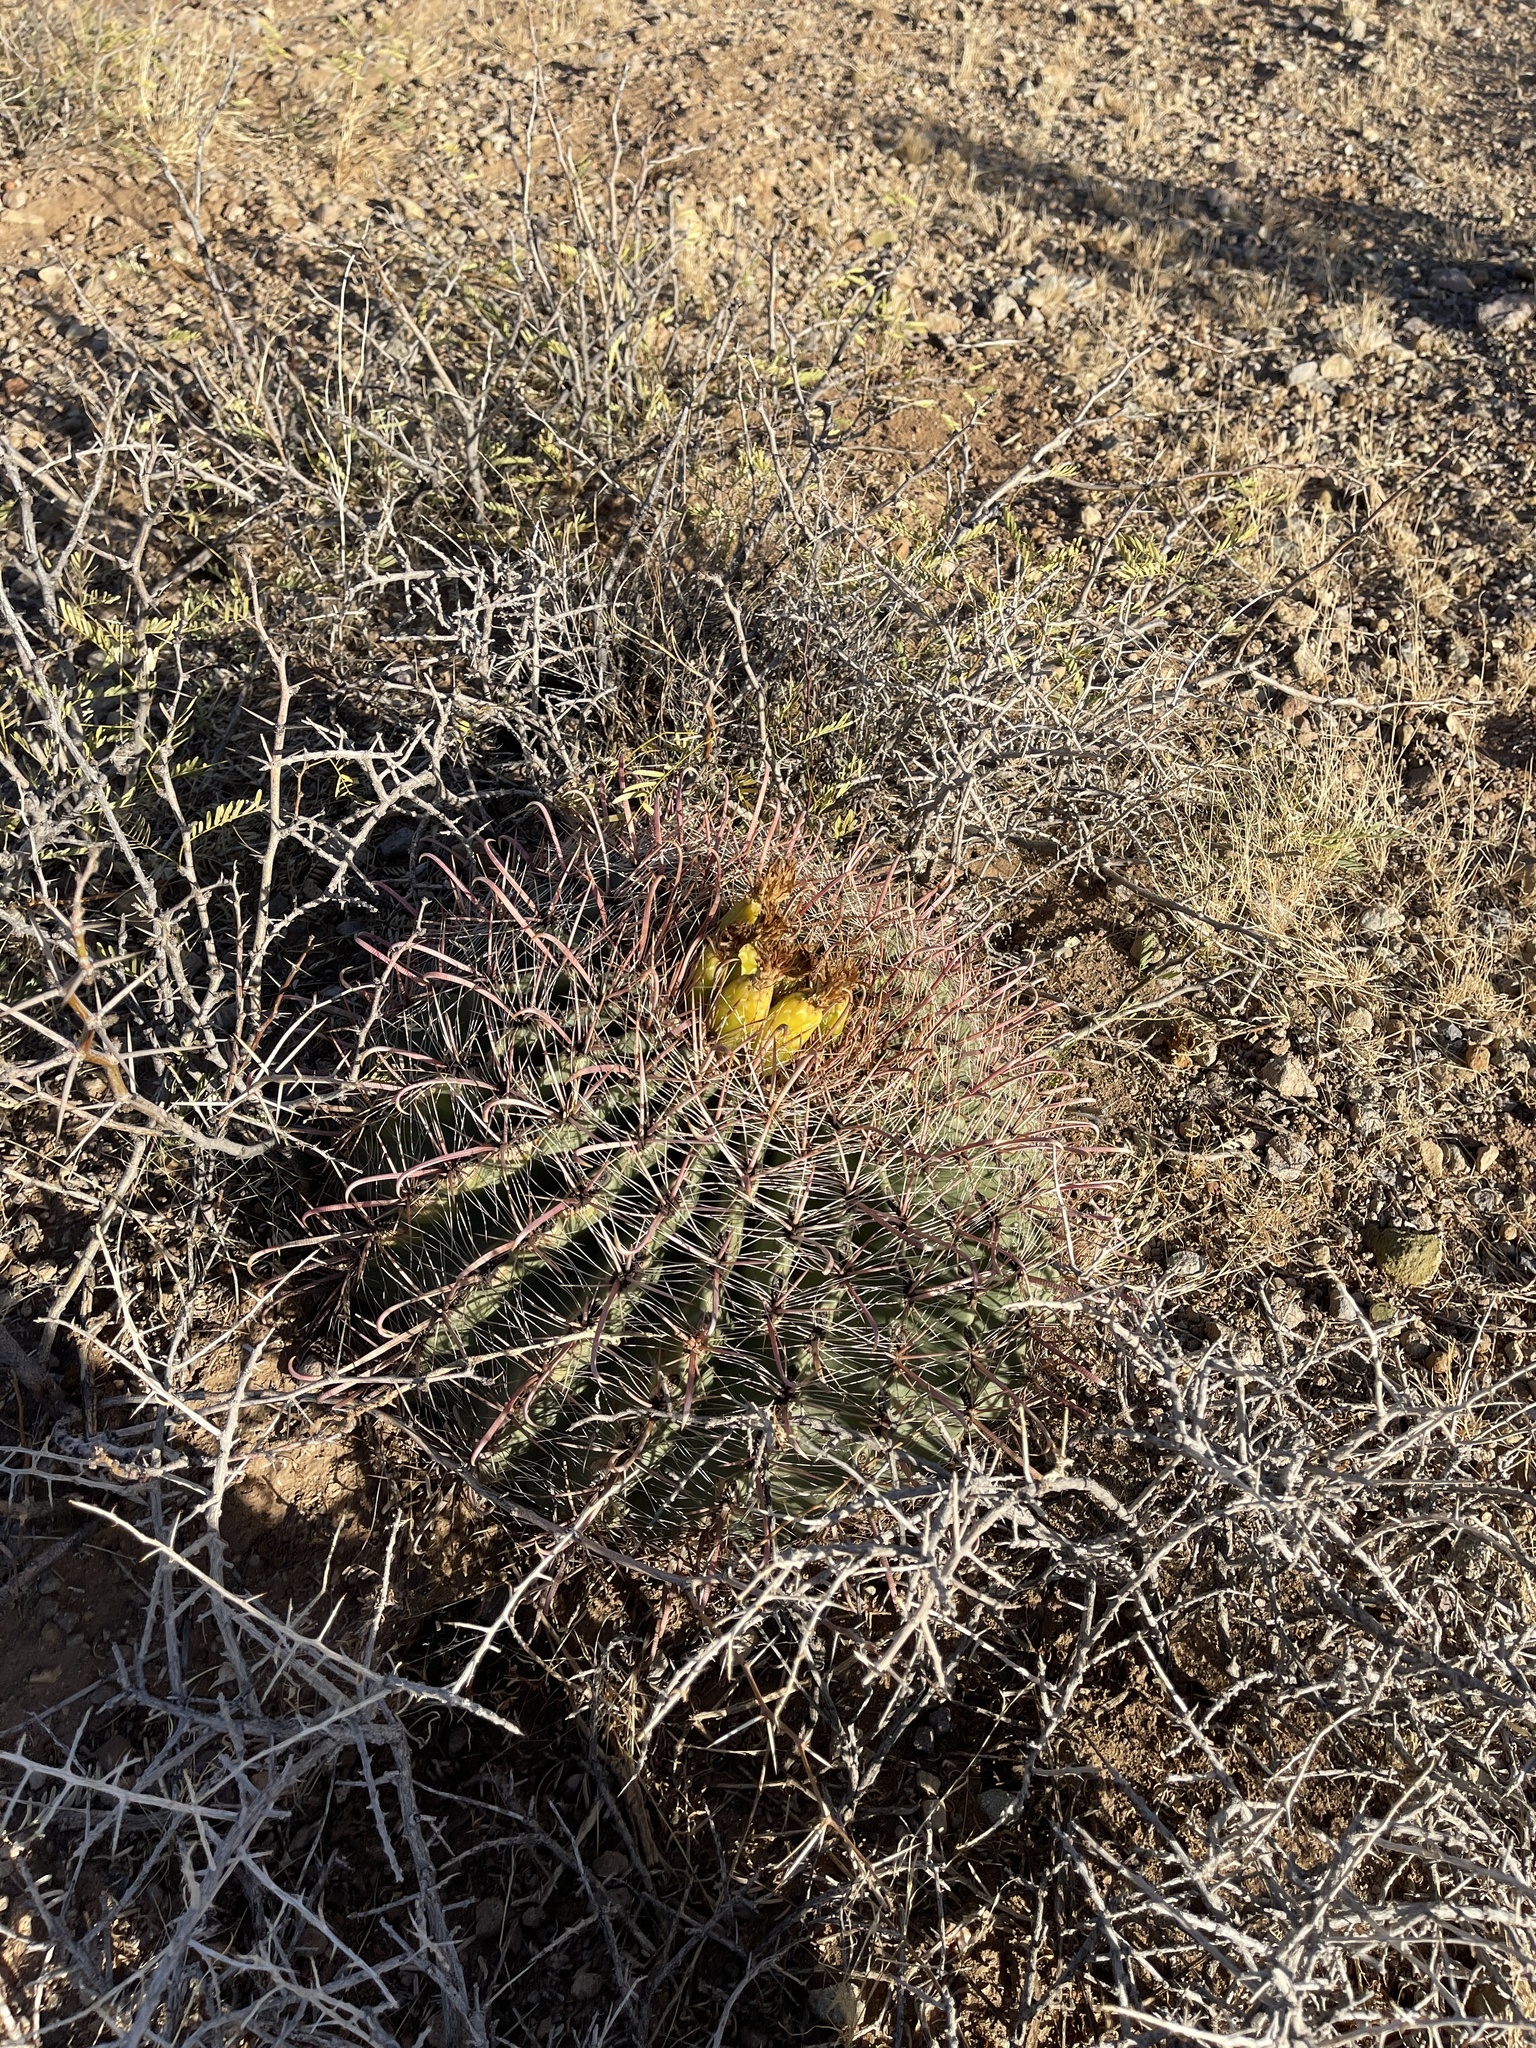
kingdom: Plantae
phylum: Tracheophyta
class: Magnoliopsida
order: Caryophyllales
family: Cactaceae
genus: Ferocactus
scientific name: Ferocactus wislizeni
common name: Candy barrel cactus
